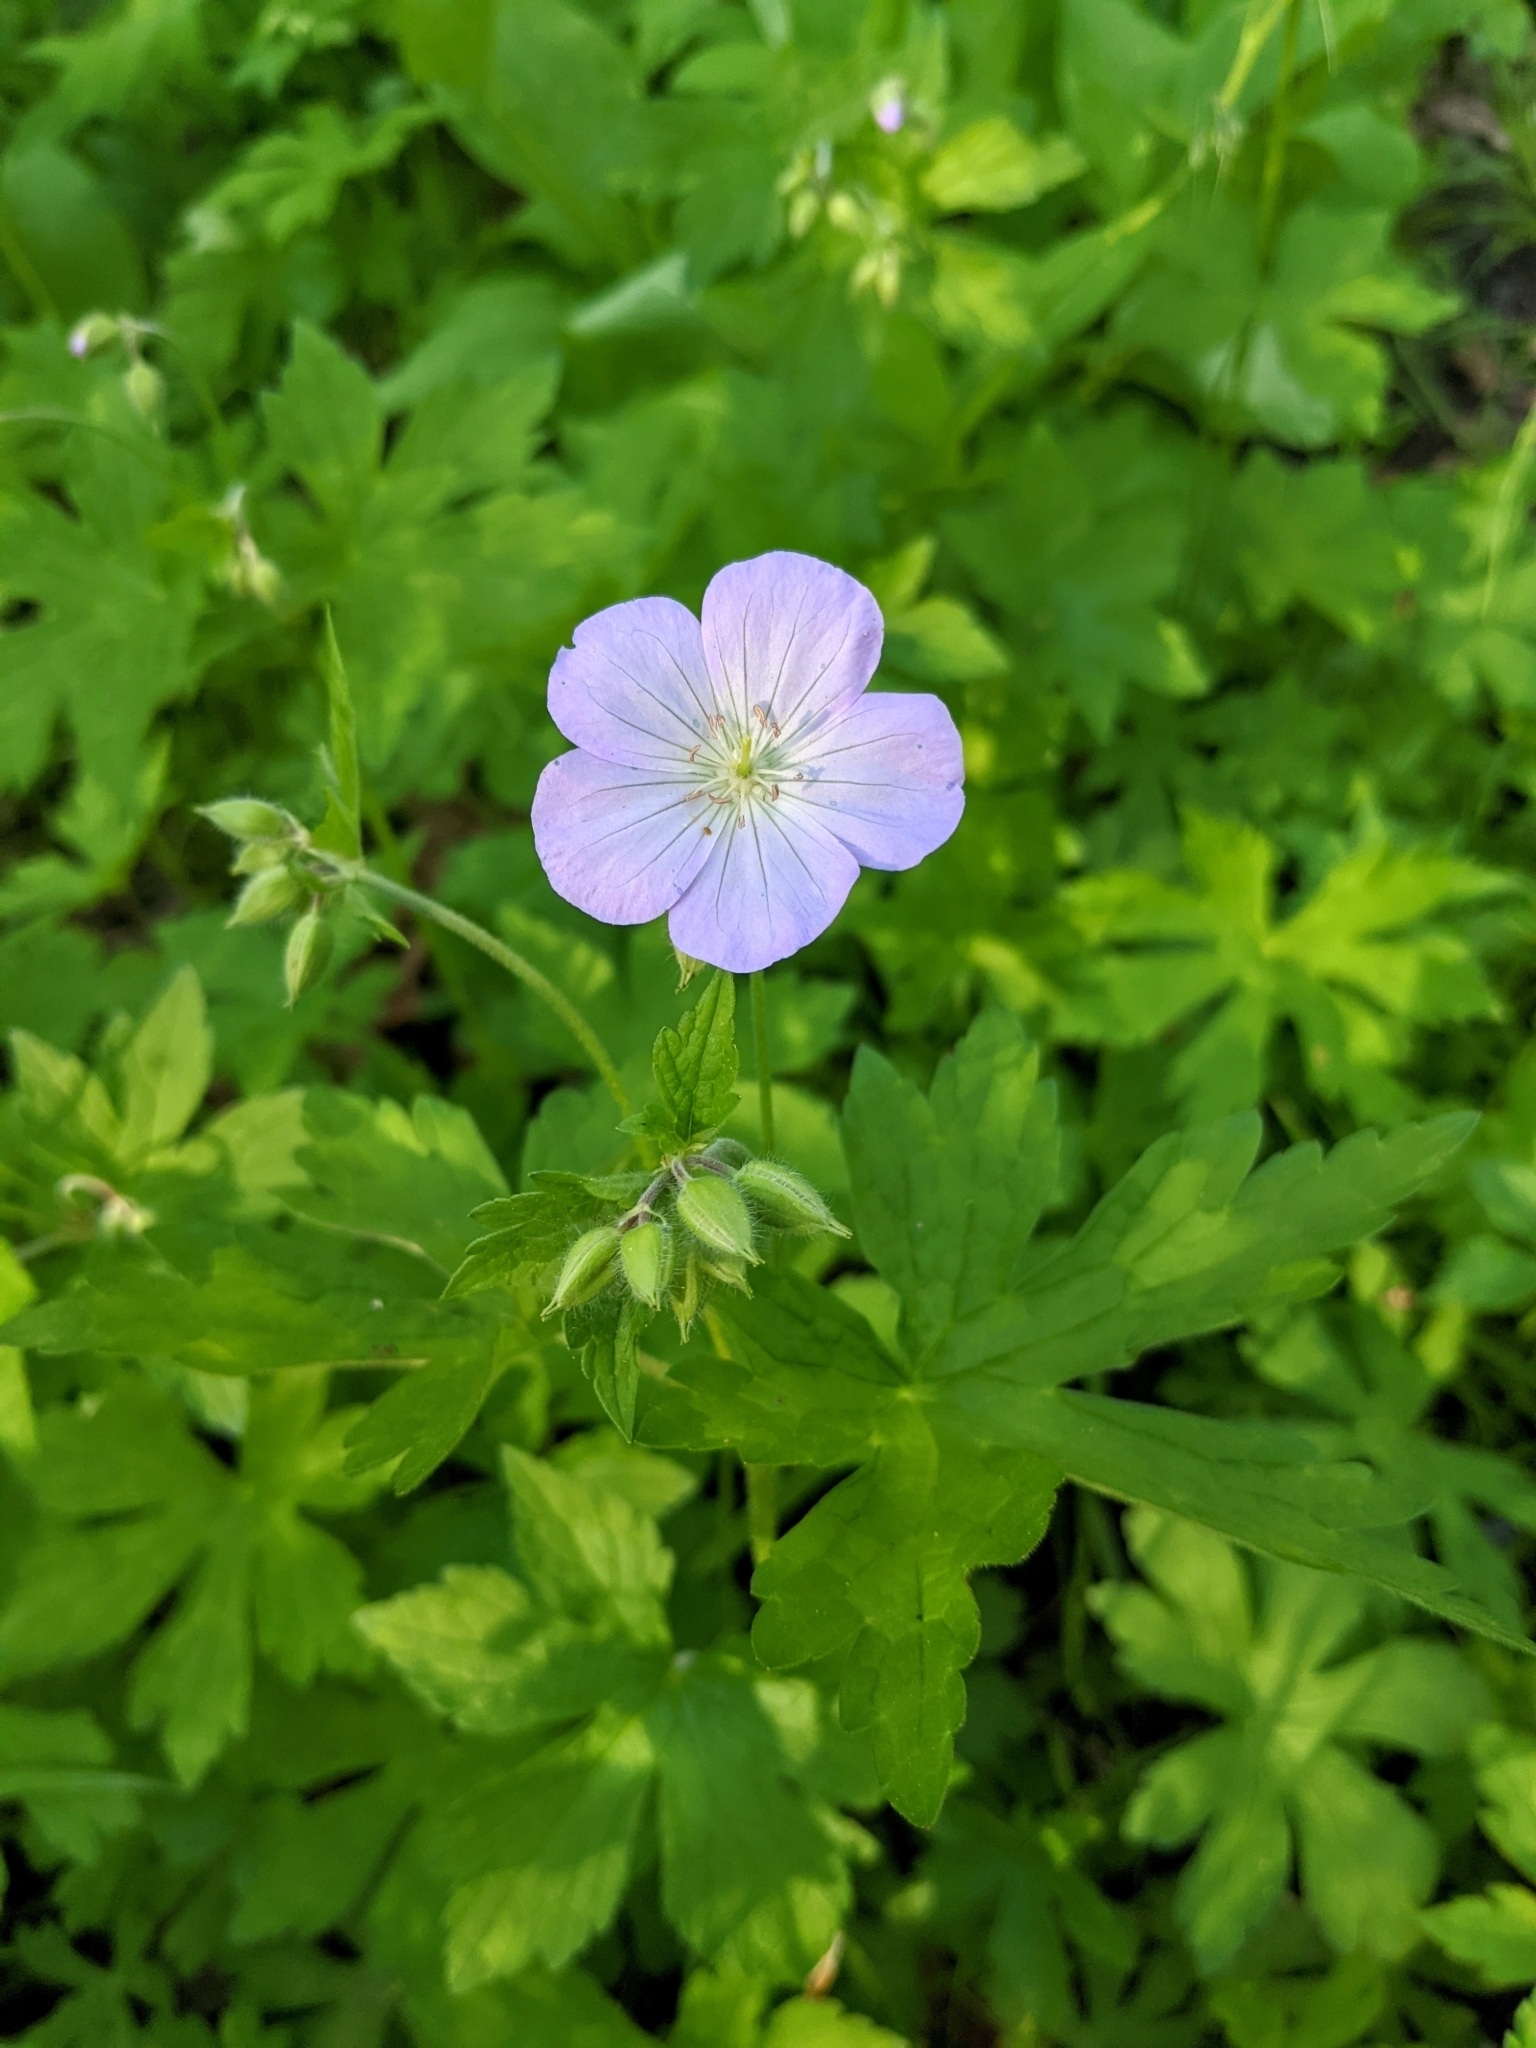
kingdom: Plantae
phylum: Tracheophyta
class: Magnoliopsida
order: Geraniales
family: Geraniaceae
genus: Geranium
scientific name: Geranium maculatum
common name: Spotted geranium
